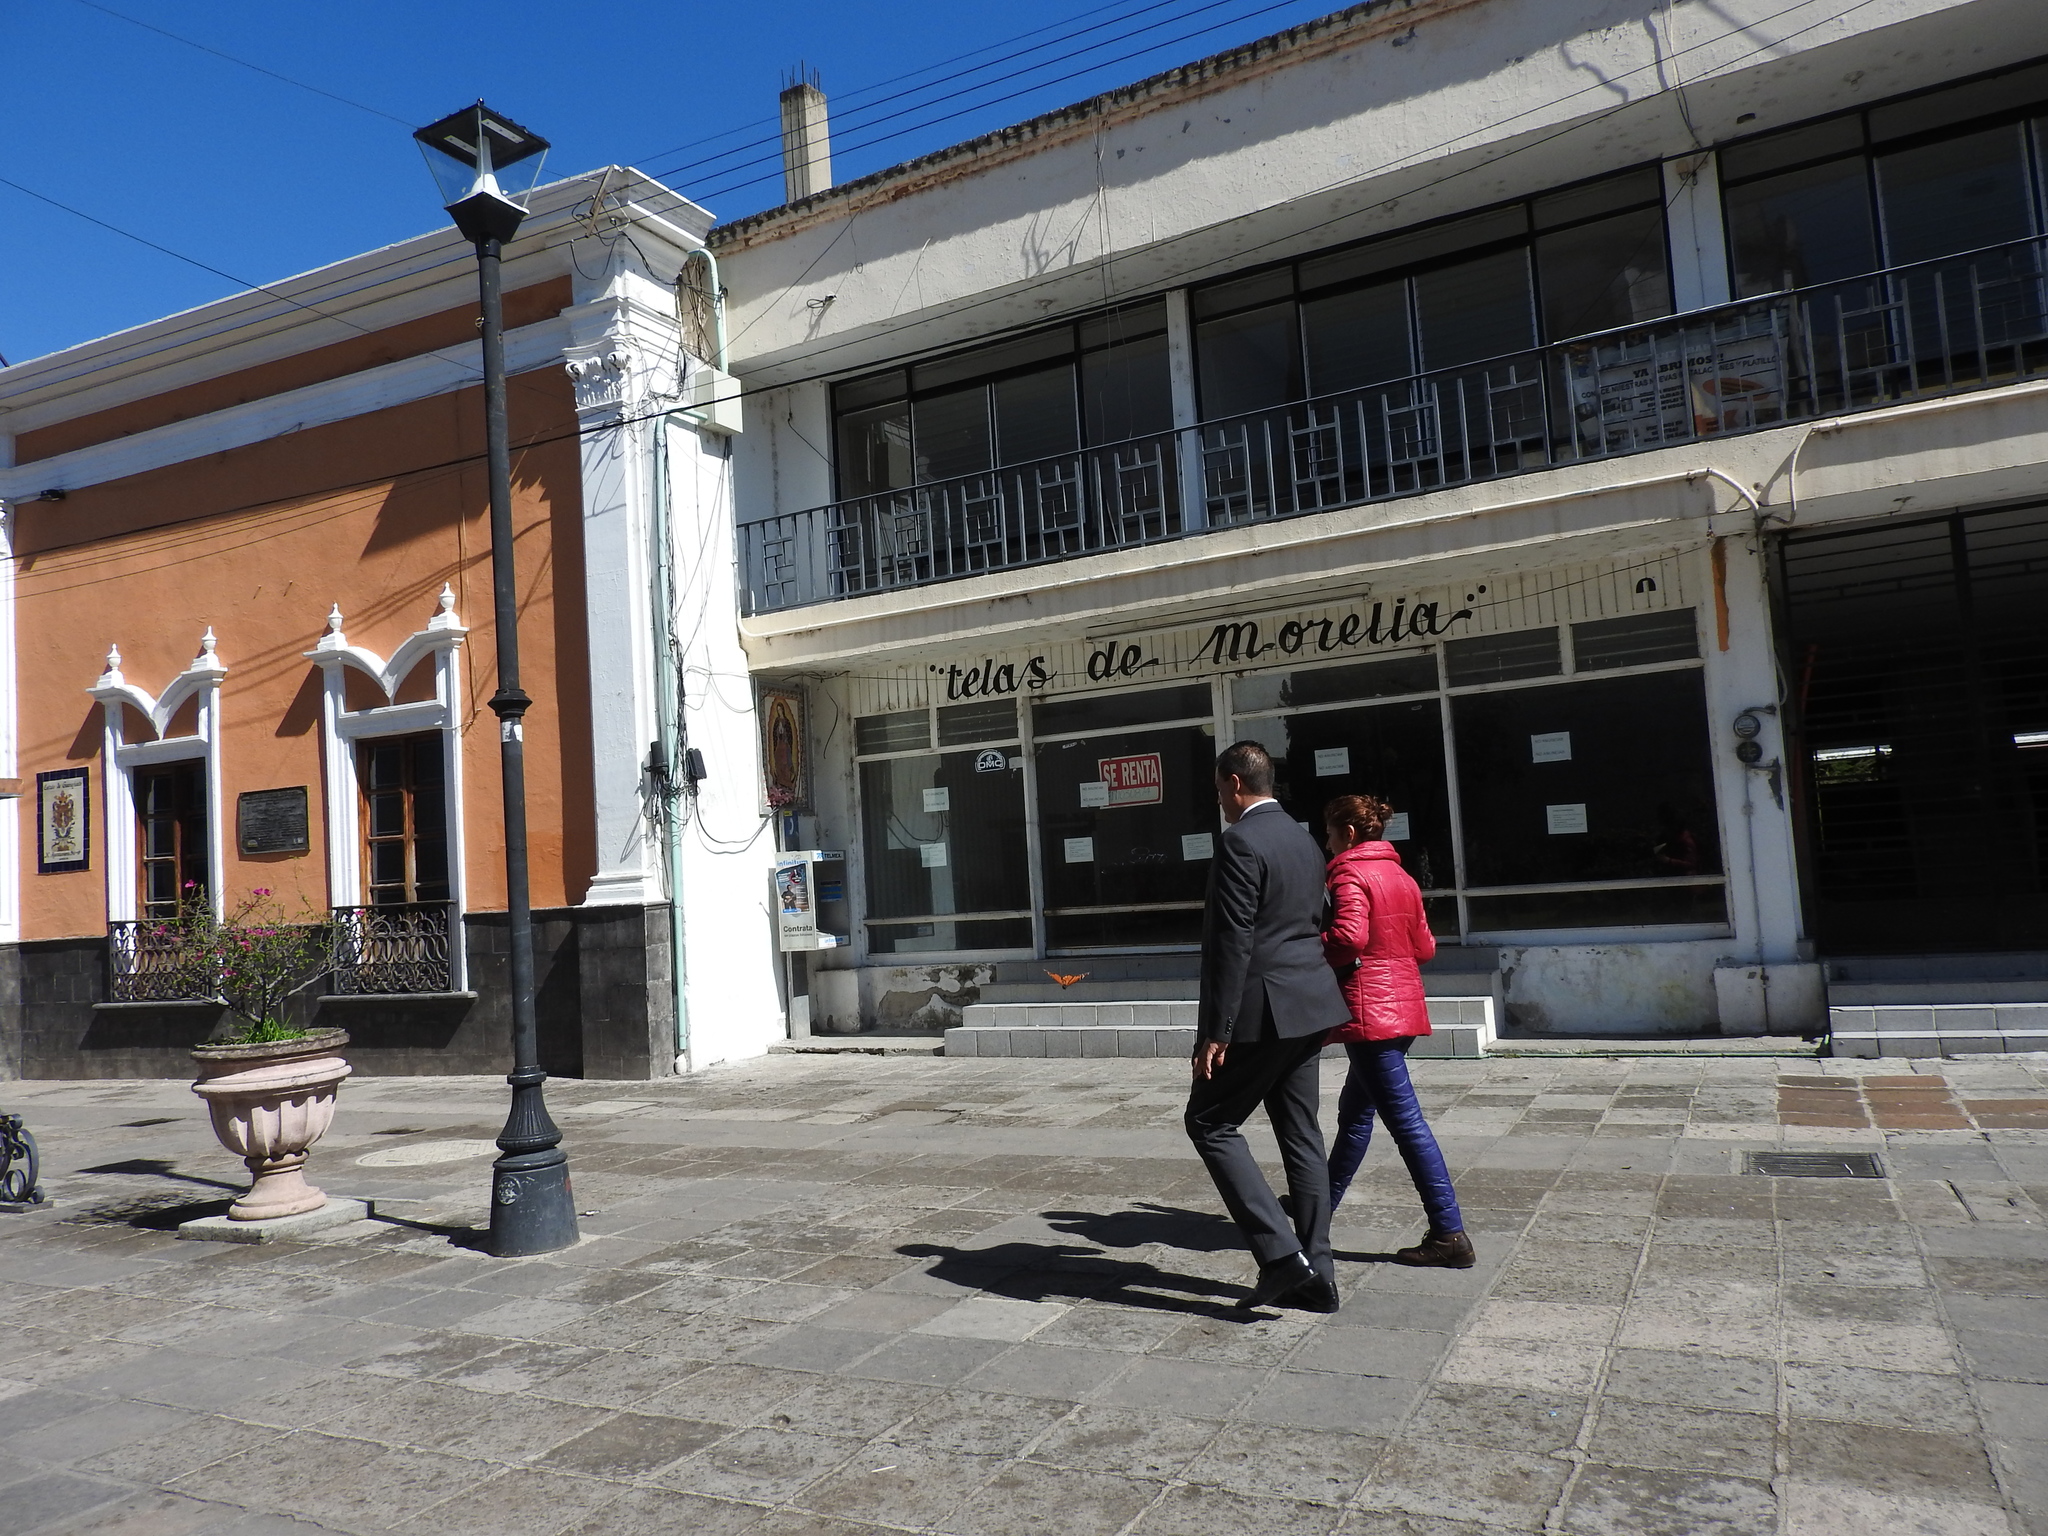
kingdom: Animalia
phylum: Arthropoda
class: Insecta
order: Lepidoptera
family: Nymphalidae
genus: Danaus
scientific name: Danaus plexippus
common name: Monarch
